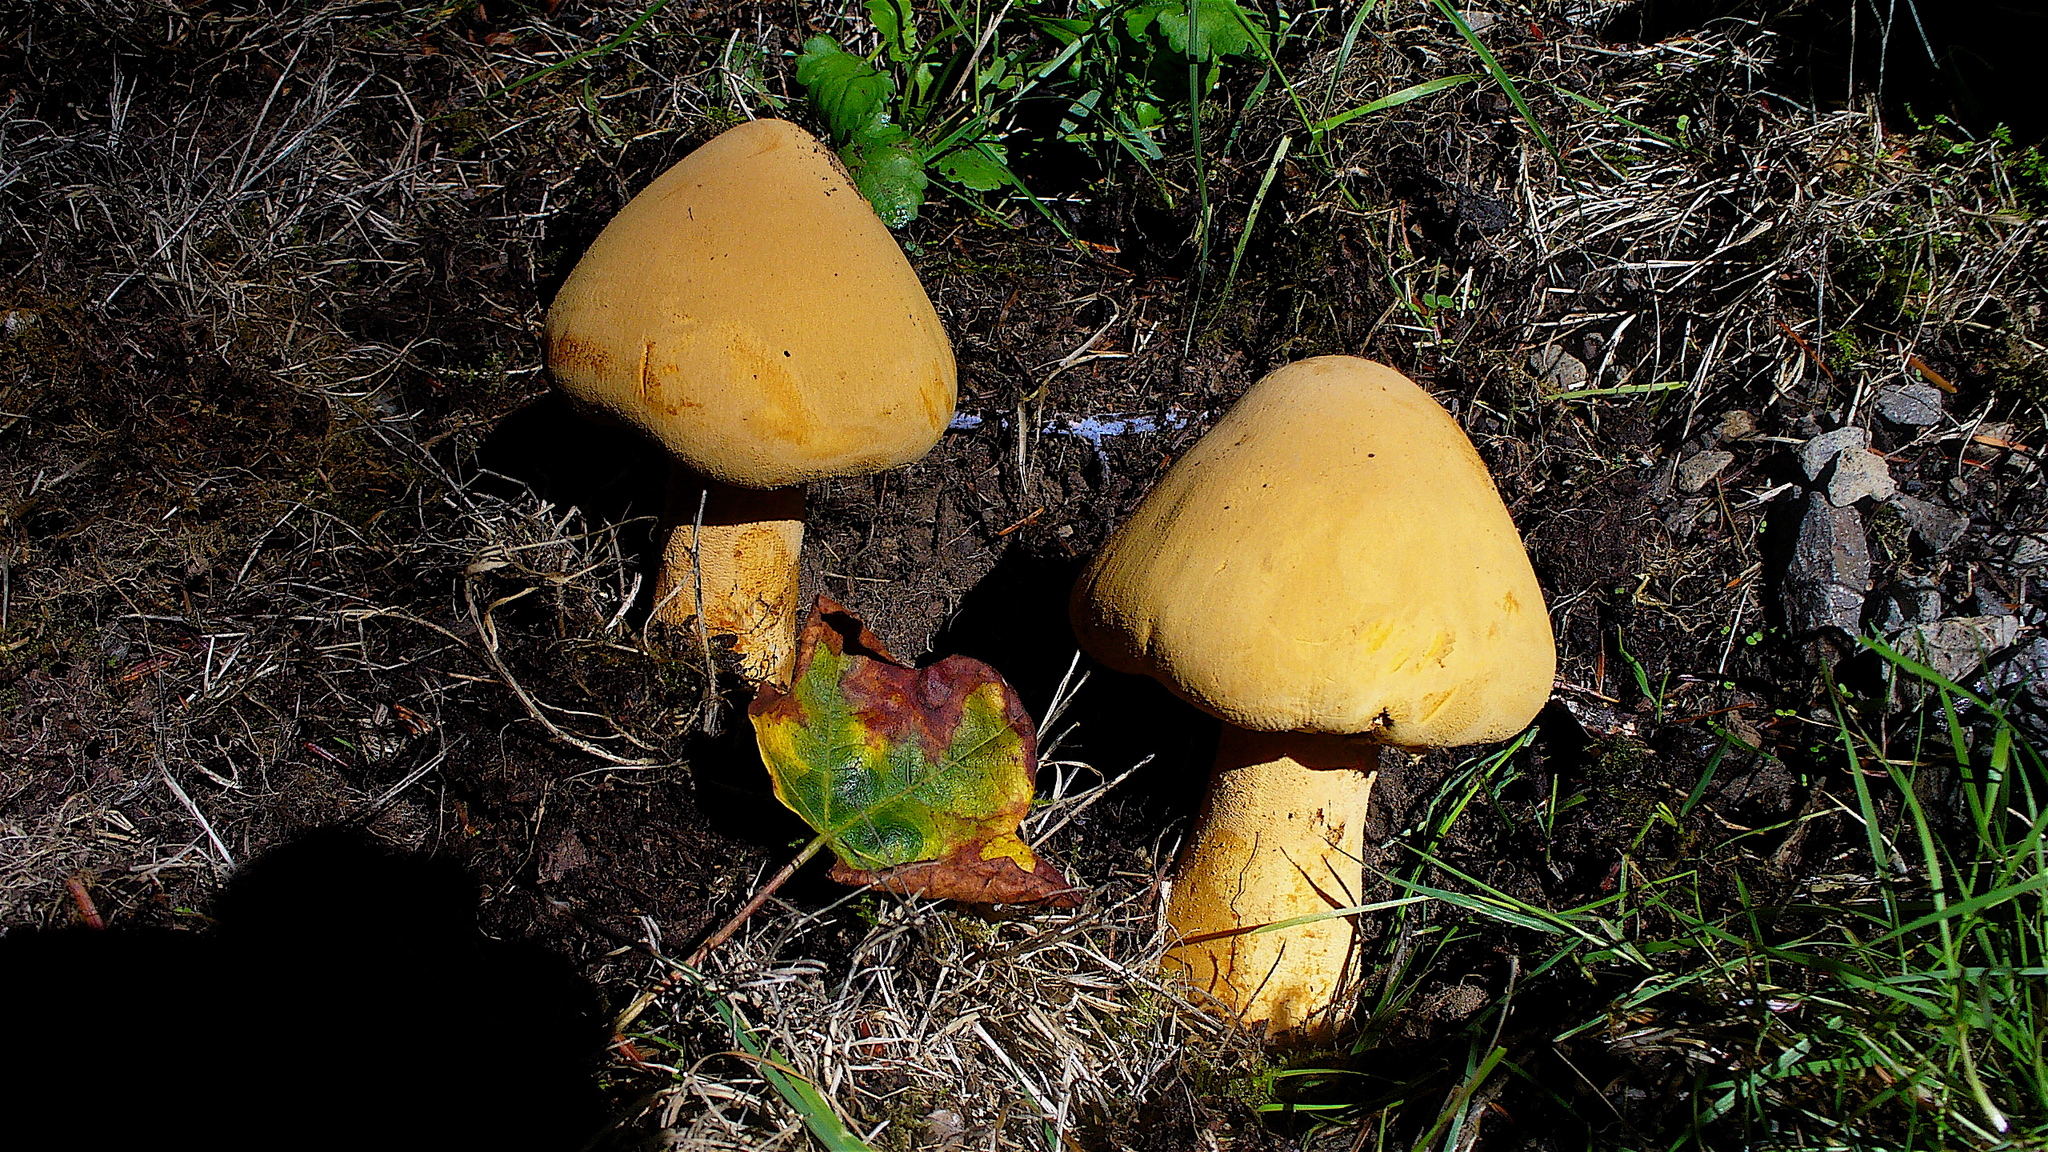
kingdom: Fungi
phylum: Basidiomycota
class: Agaricomycetes
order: Agaricales
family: Tricholomataceae
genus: Phaeolepiota
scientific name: Phaeolepiota aurea
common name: Golden bootleg
